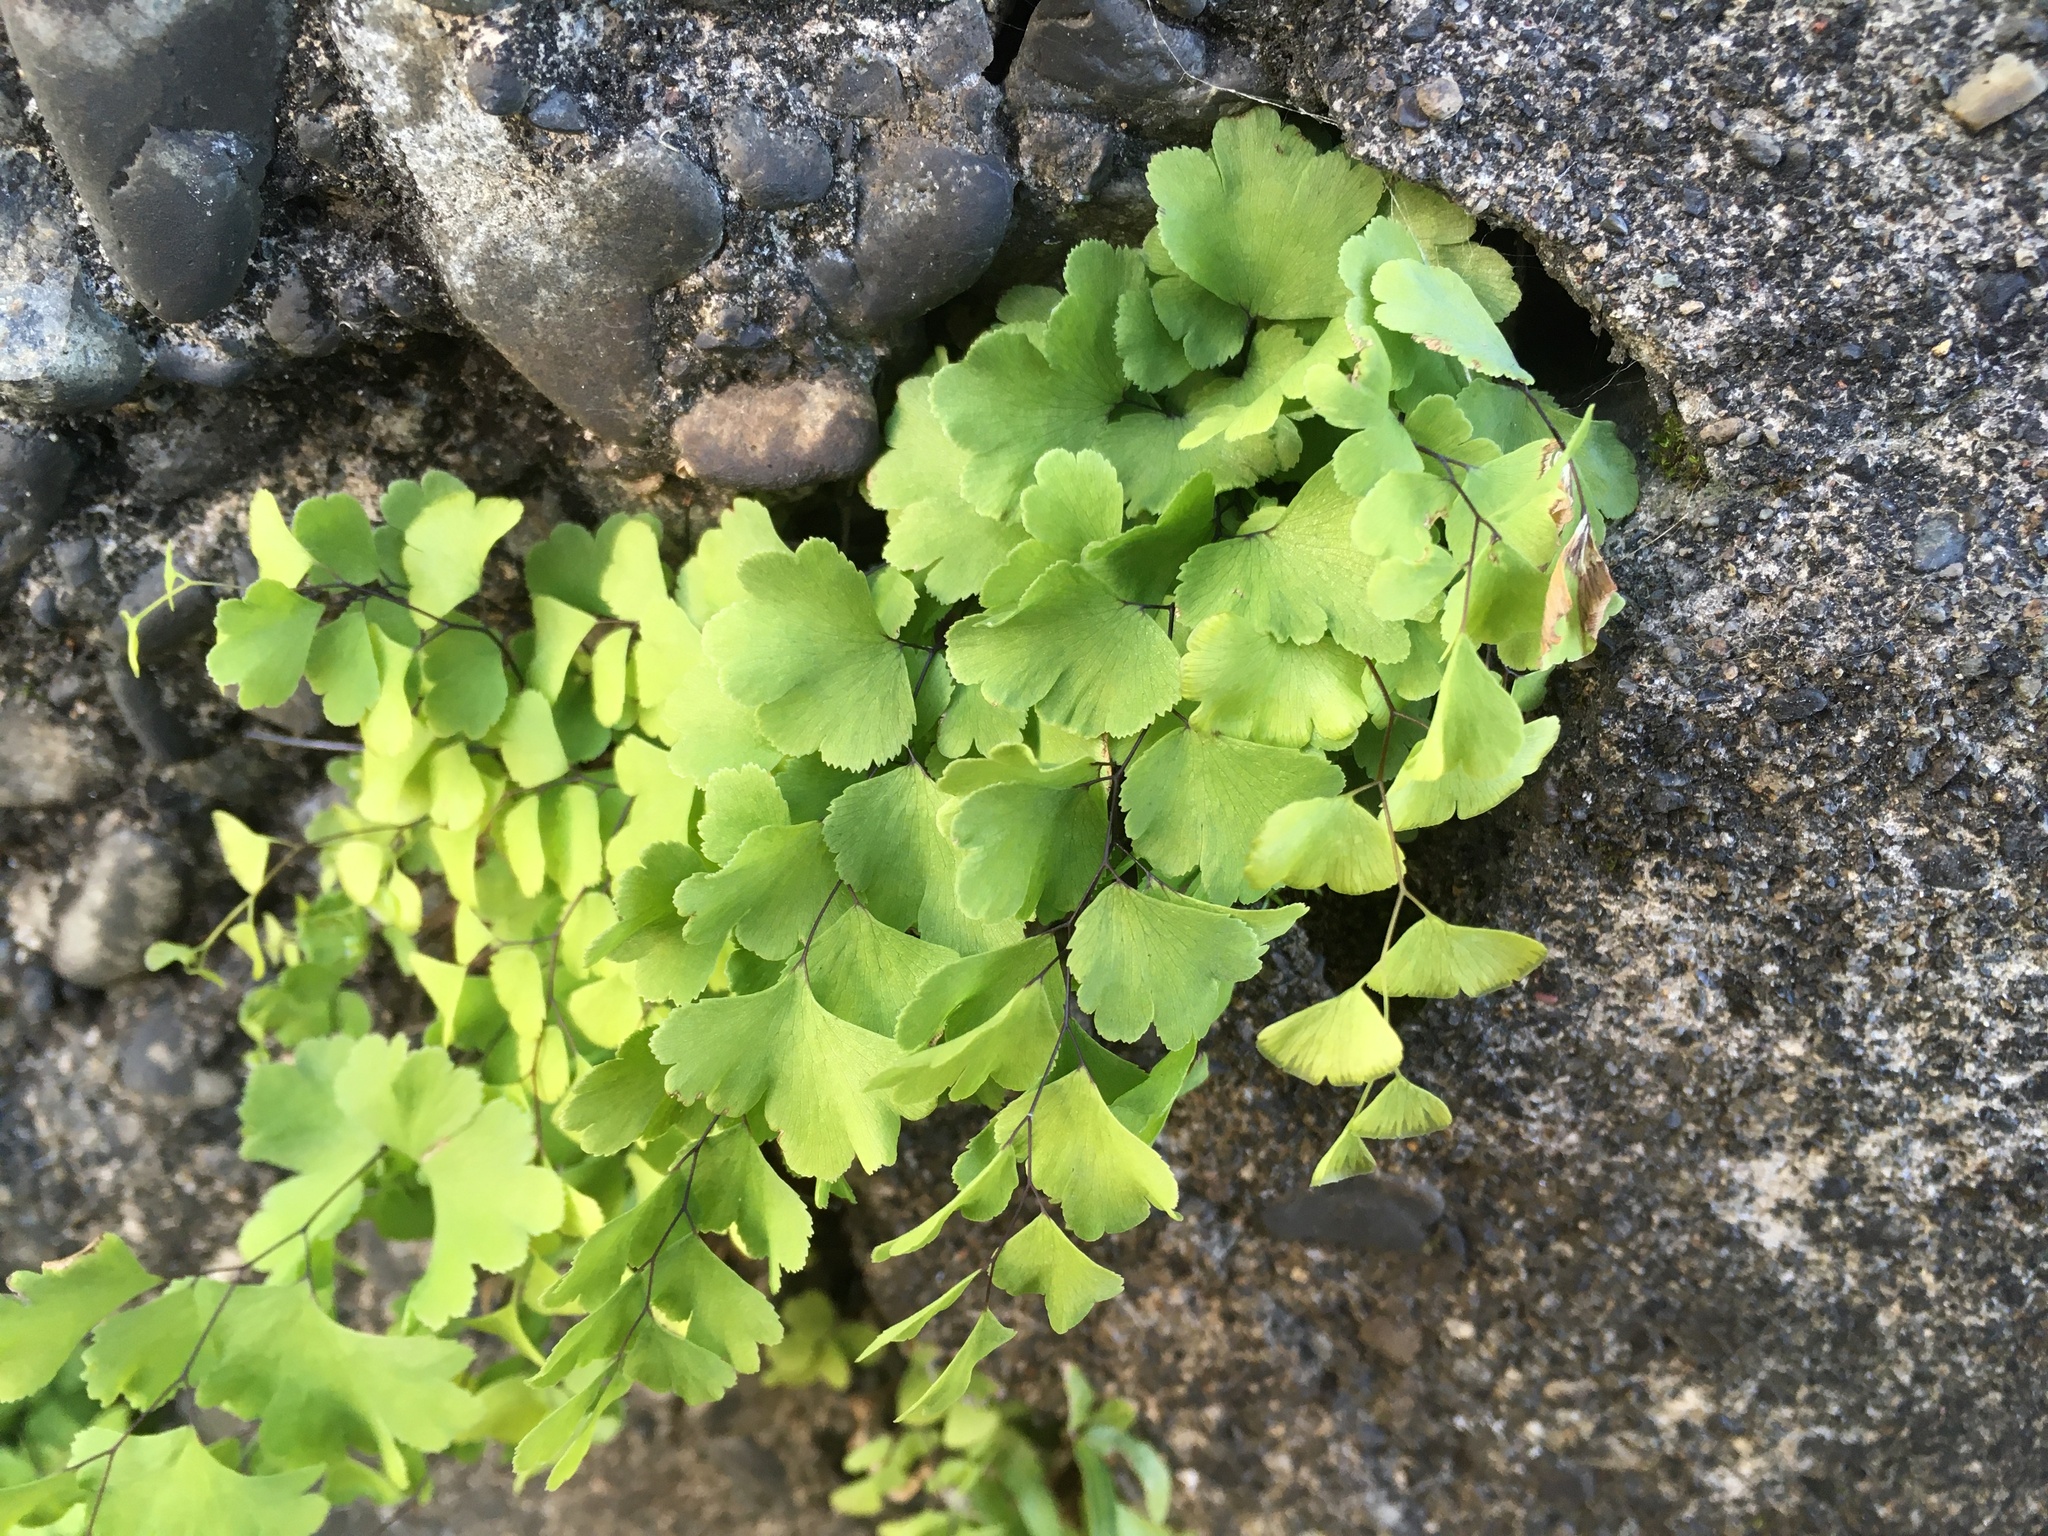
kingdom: Plantae
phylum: Tracheophyta
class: Polypodiopsida
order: Polypodiales
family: Pteridaceae
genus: Adiantum
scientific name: Adiantum capillus-veneris
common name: Maidenhair fern
